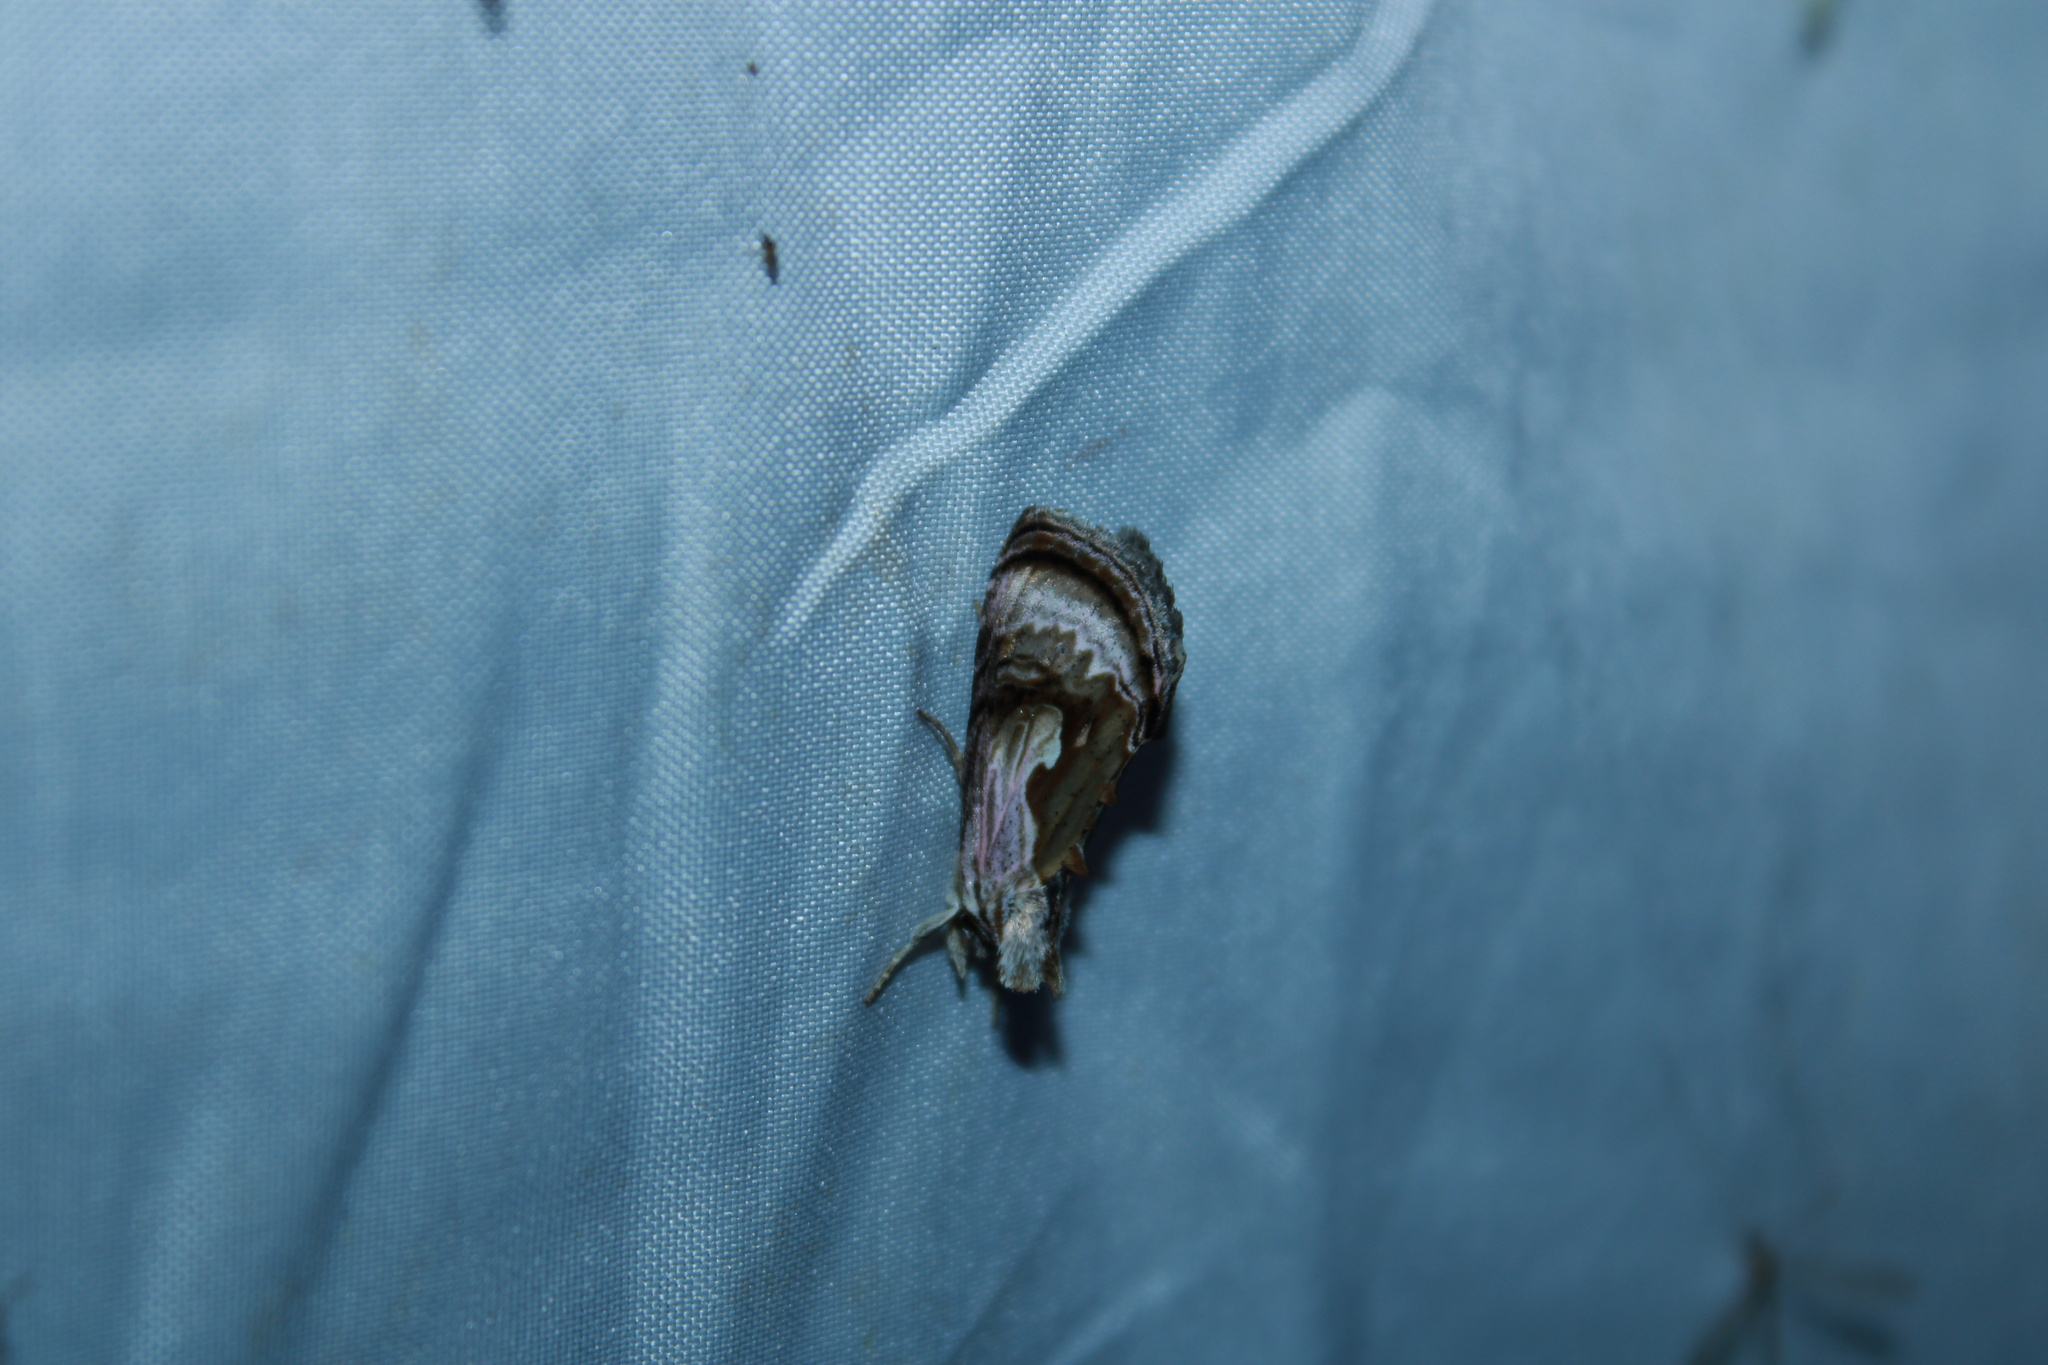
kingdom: Animalia
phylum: Arthropoda
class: Insecta
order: Lepidoptera
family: Noctuidae
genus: Chrysanympha
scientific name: Chrysanympha formosa
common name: Formosa looper moth
